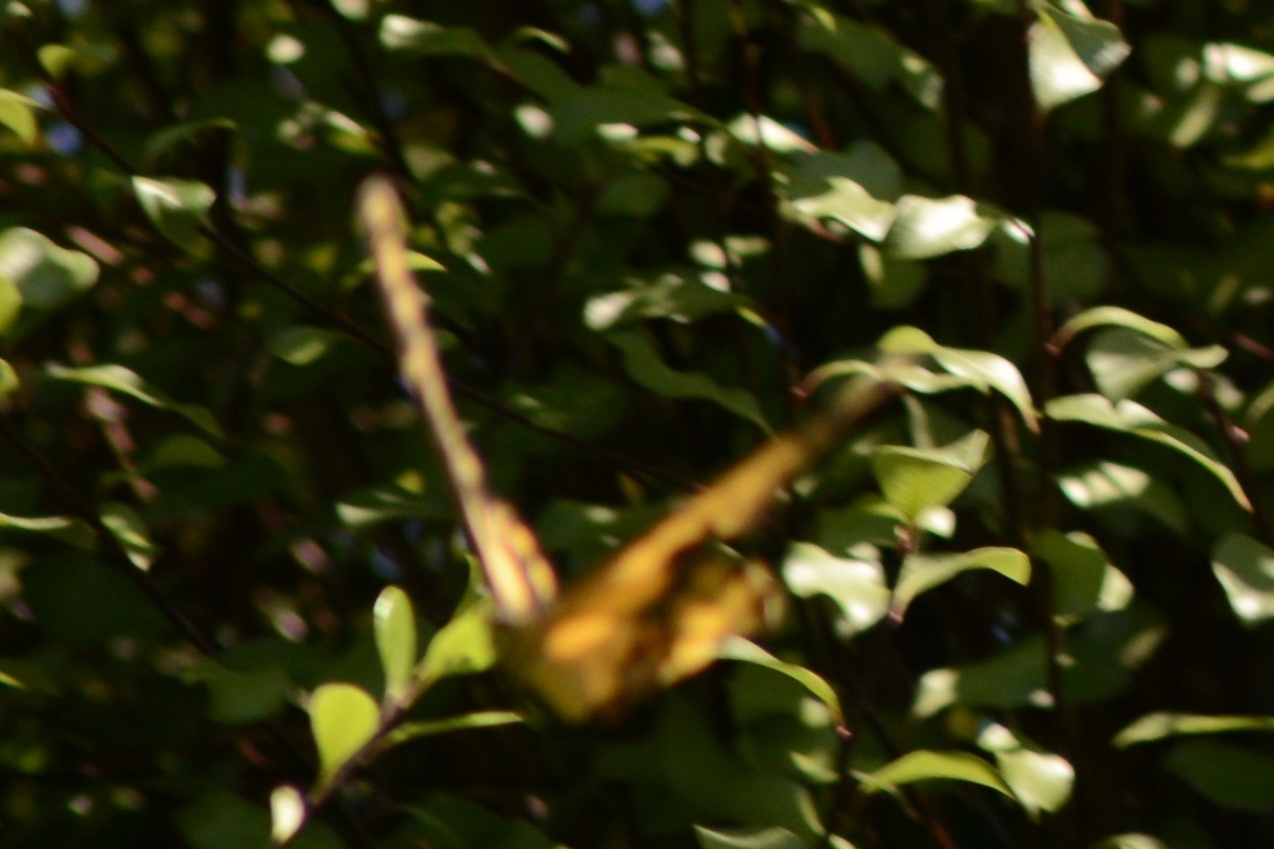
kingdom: Animalia
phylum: Arthropoda
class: Insecta
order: Lepidoptera
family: Papilionidae
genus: Papilio
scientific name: Papilio rumiko
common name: Western giant swallowtail
